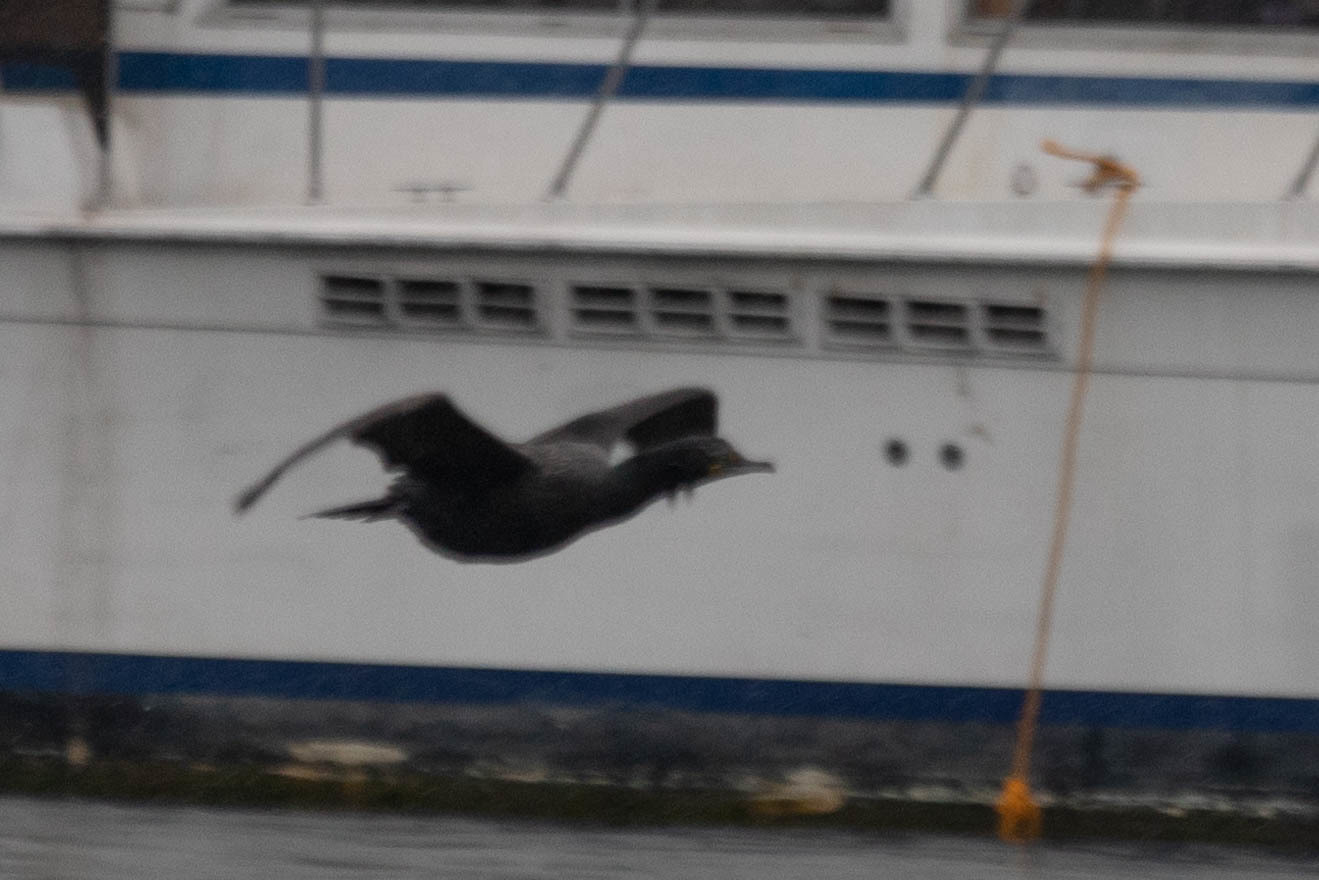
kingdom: Animalia
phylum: Chordata
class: Aves
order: Suliformes
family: Phalacrocoracidae
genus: Phalacrocorax
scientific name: Phalacrocorax auritus
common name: Double-crested cormorant
